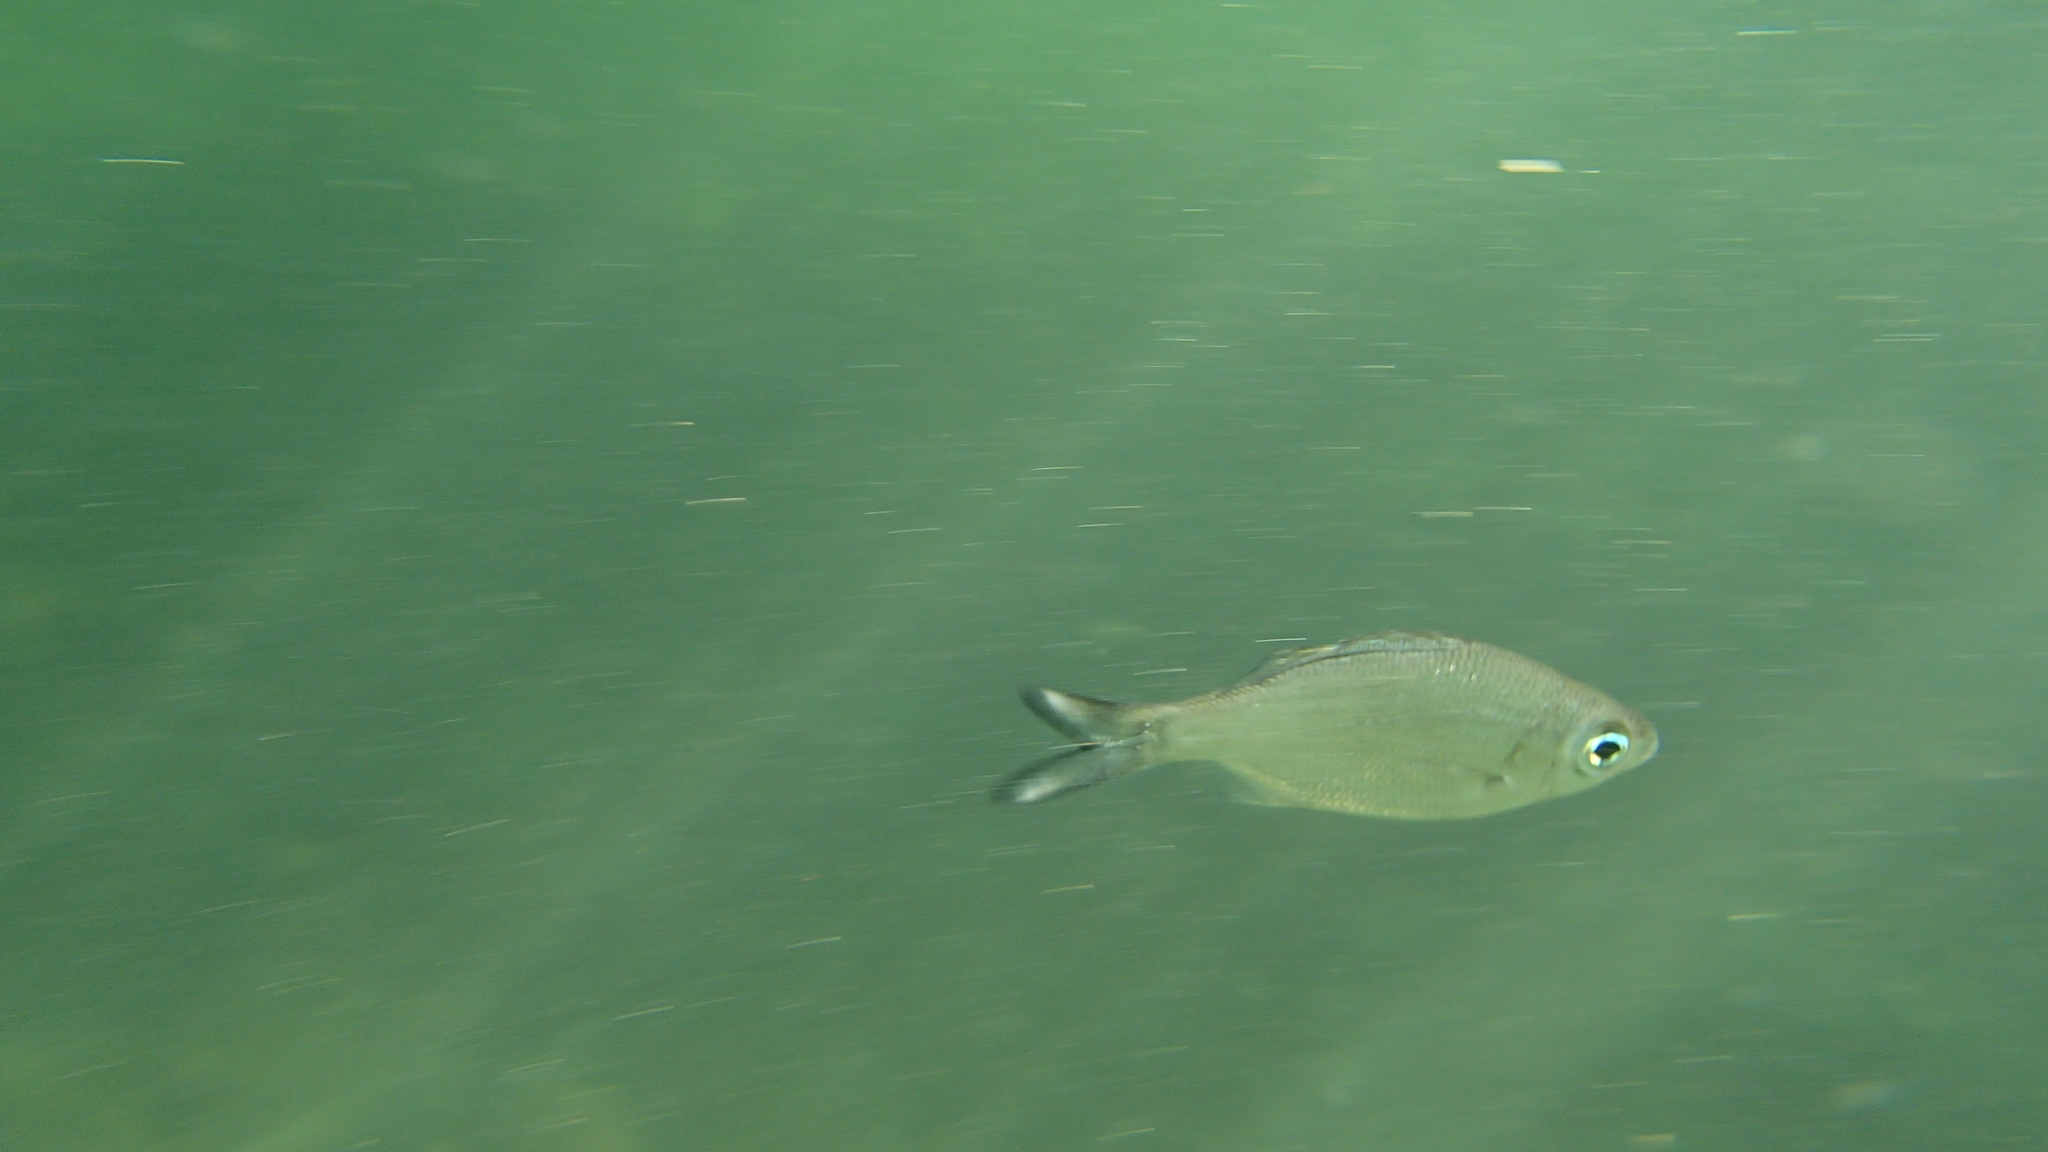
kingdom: Animalia
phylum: Chordata
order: Perciformes
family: Kuhliidae
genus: Kuhlia
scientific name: Kuhlia xenura
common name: Hawaiian flagtail
